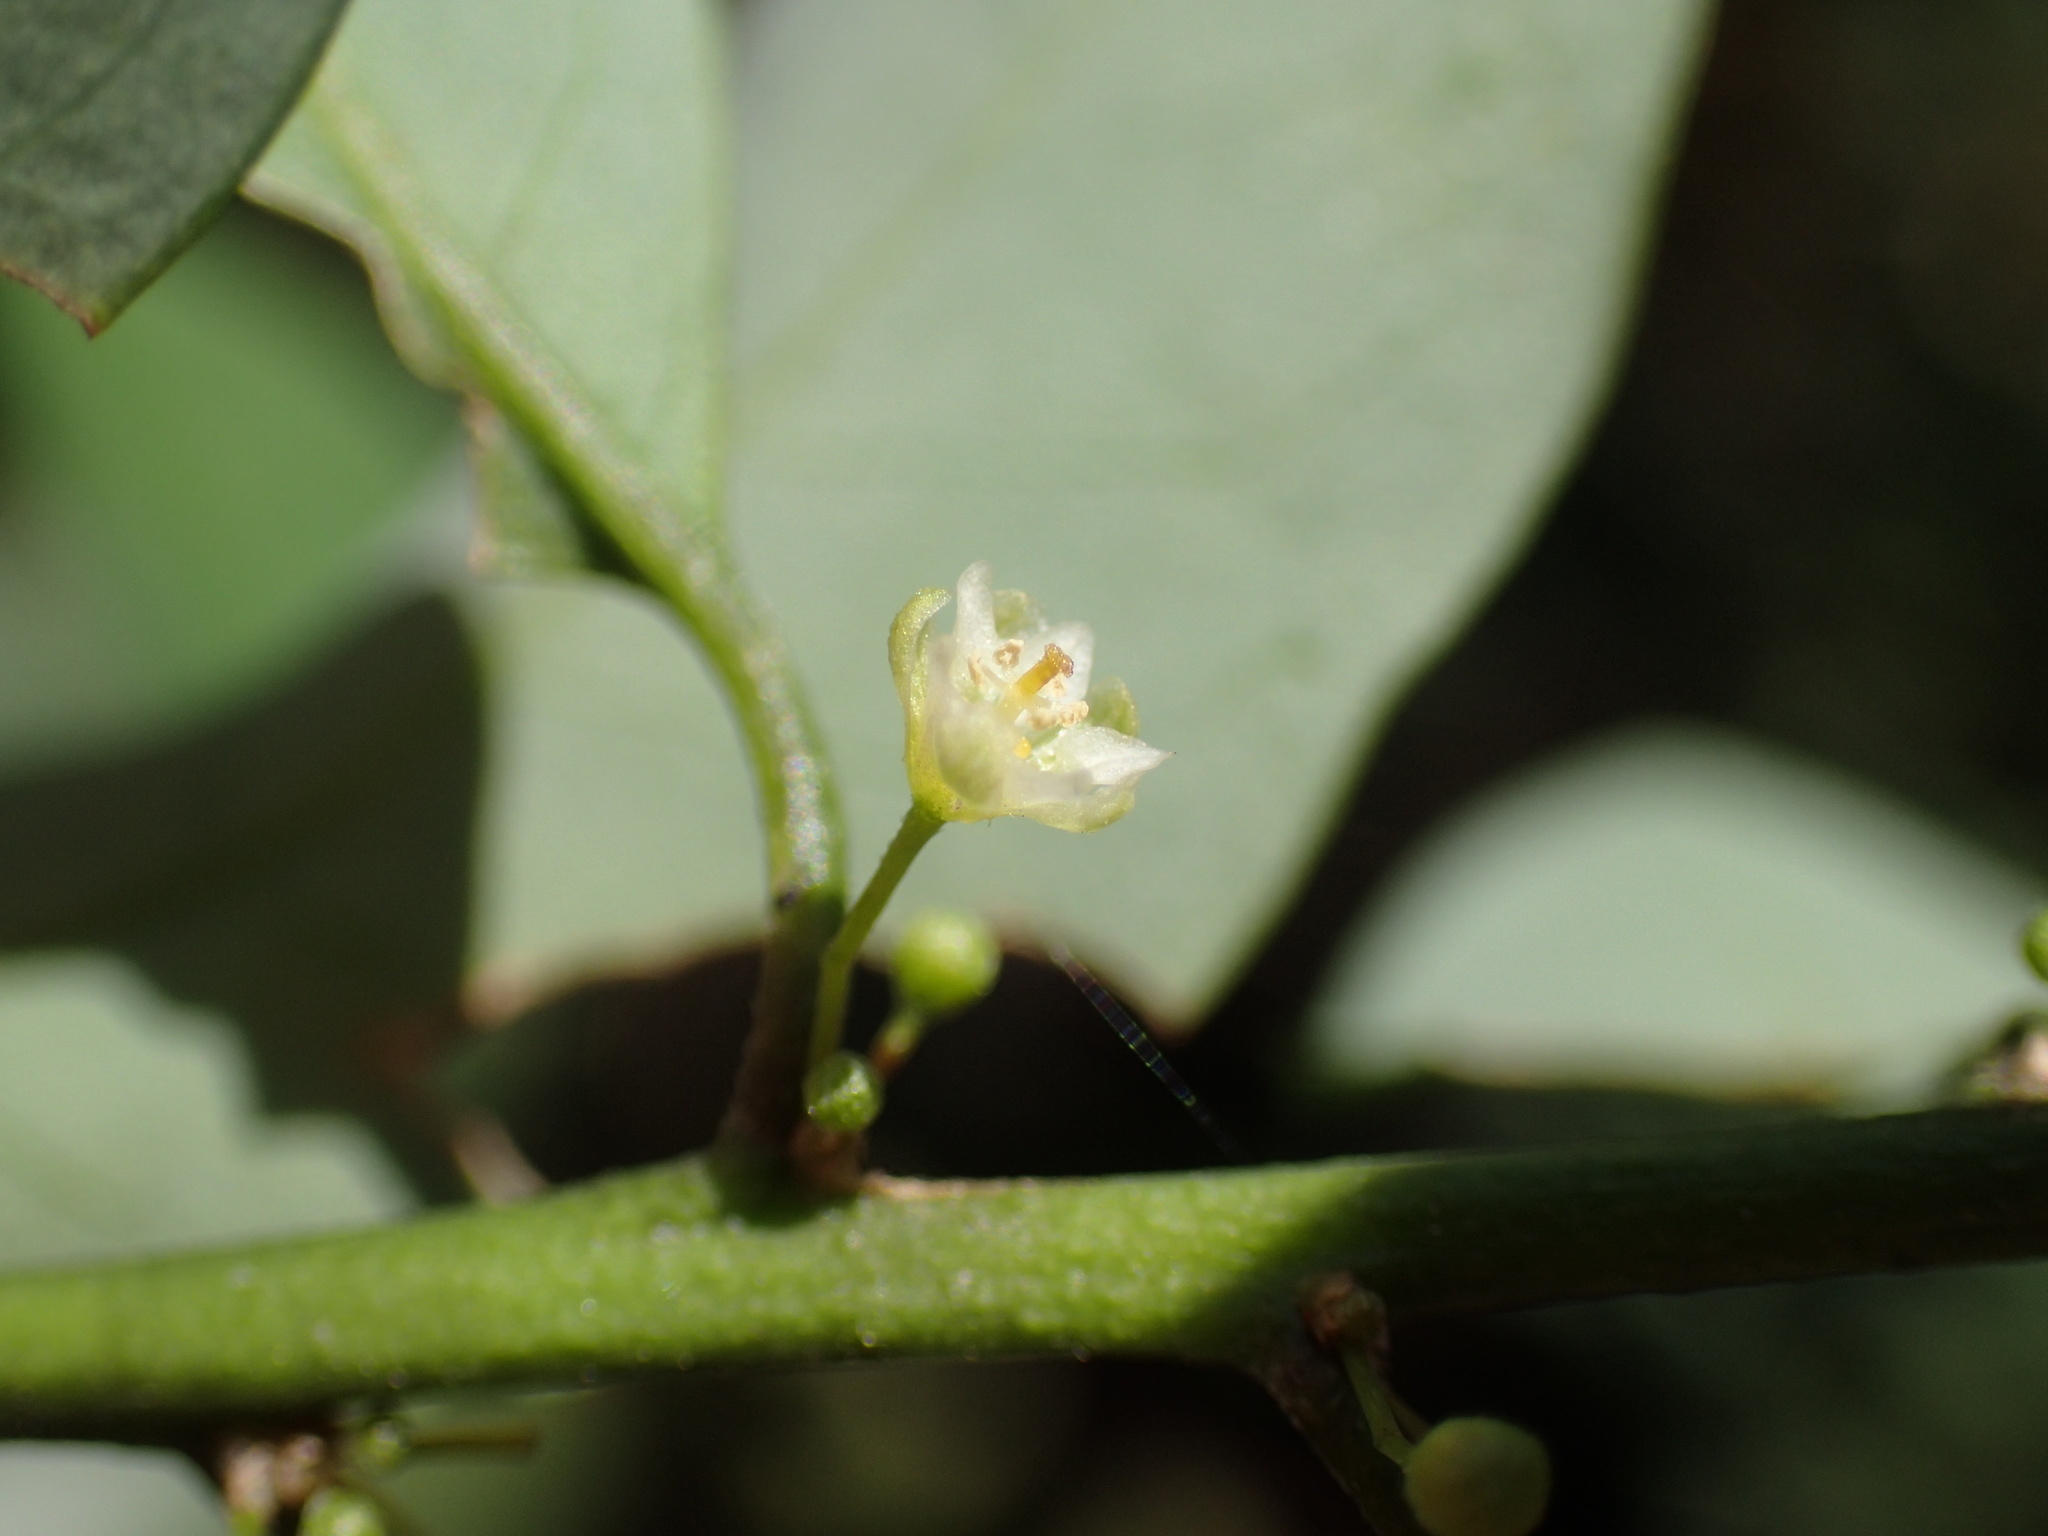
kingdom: Plantae
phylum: Tracheophyta
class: Magnoliopsida
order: Malpighiales
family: Passifloraceae
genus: Adenia
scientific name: Adenia cissampeloides
